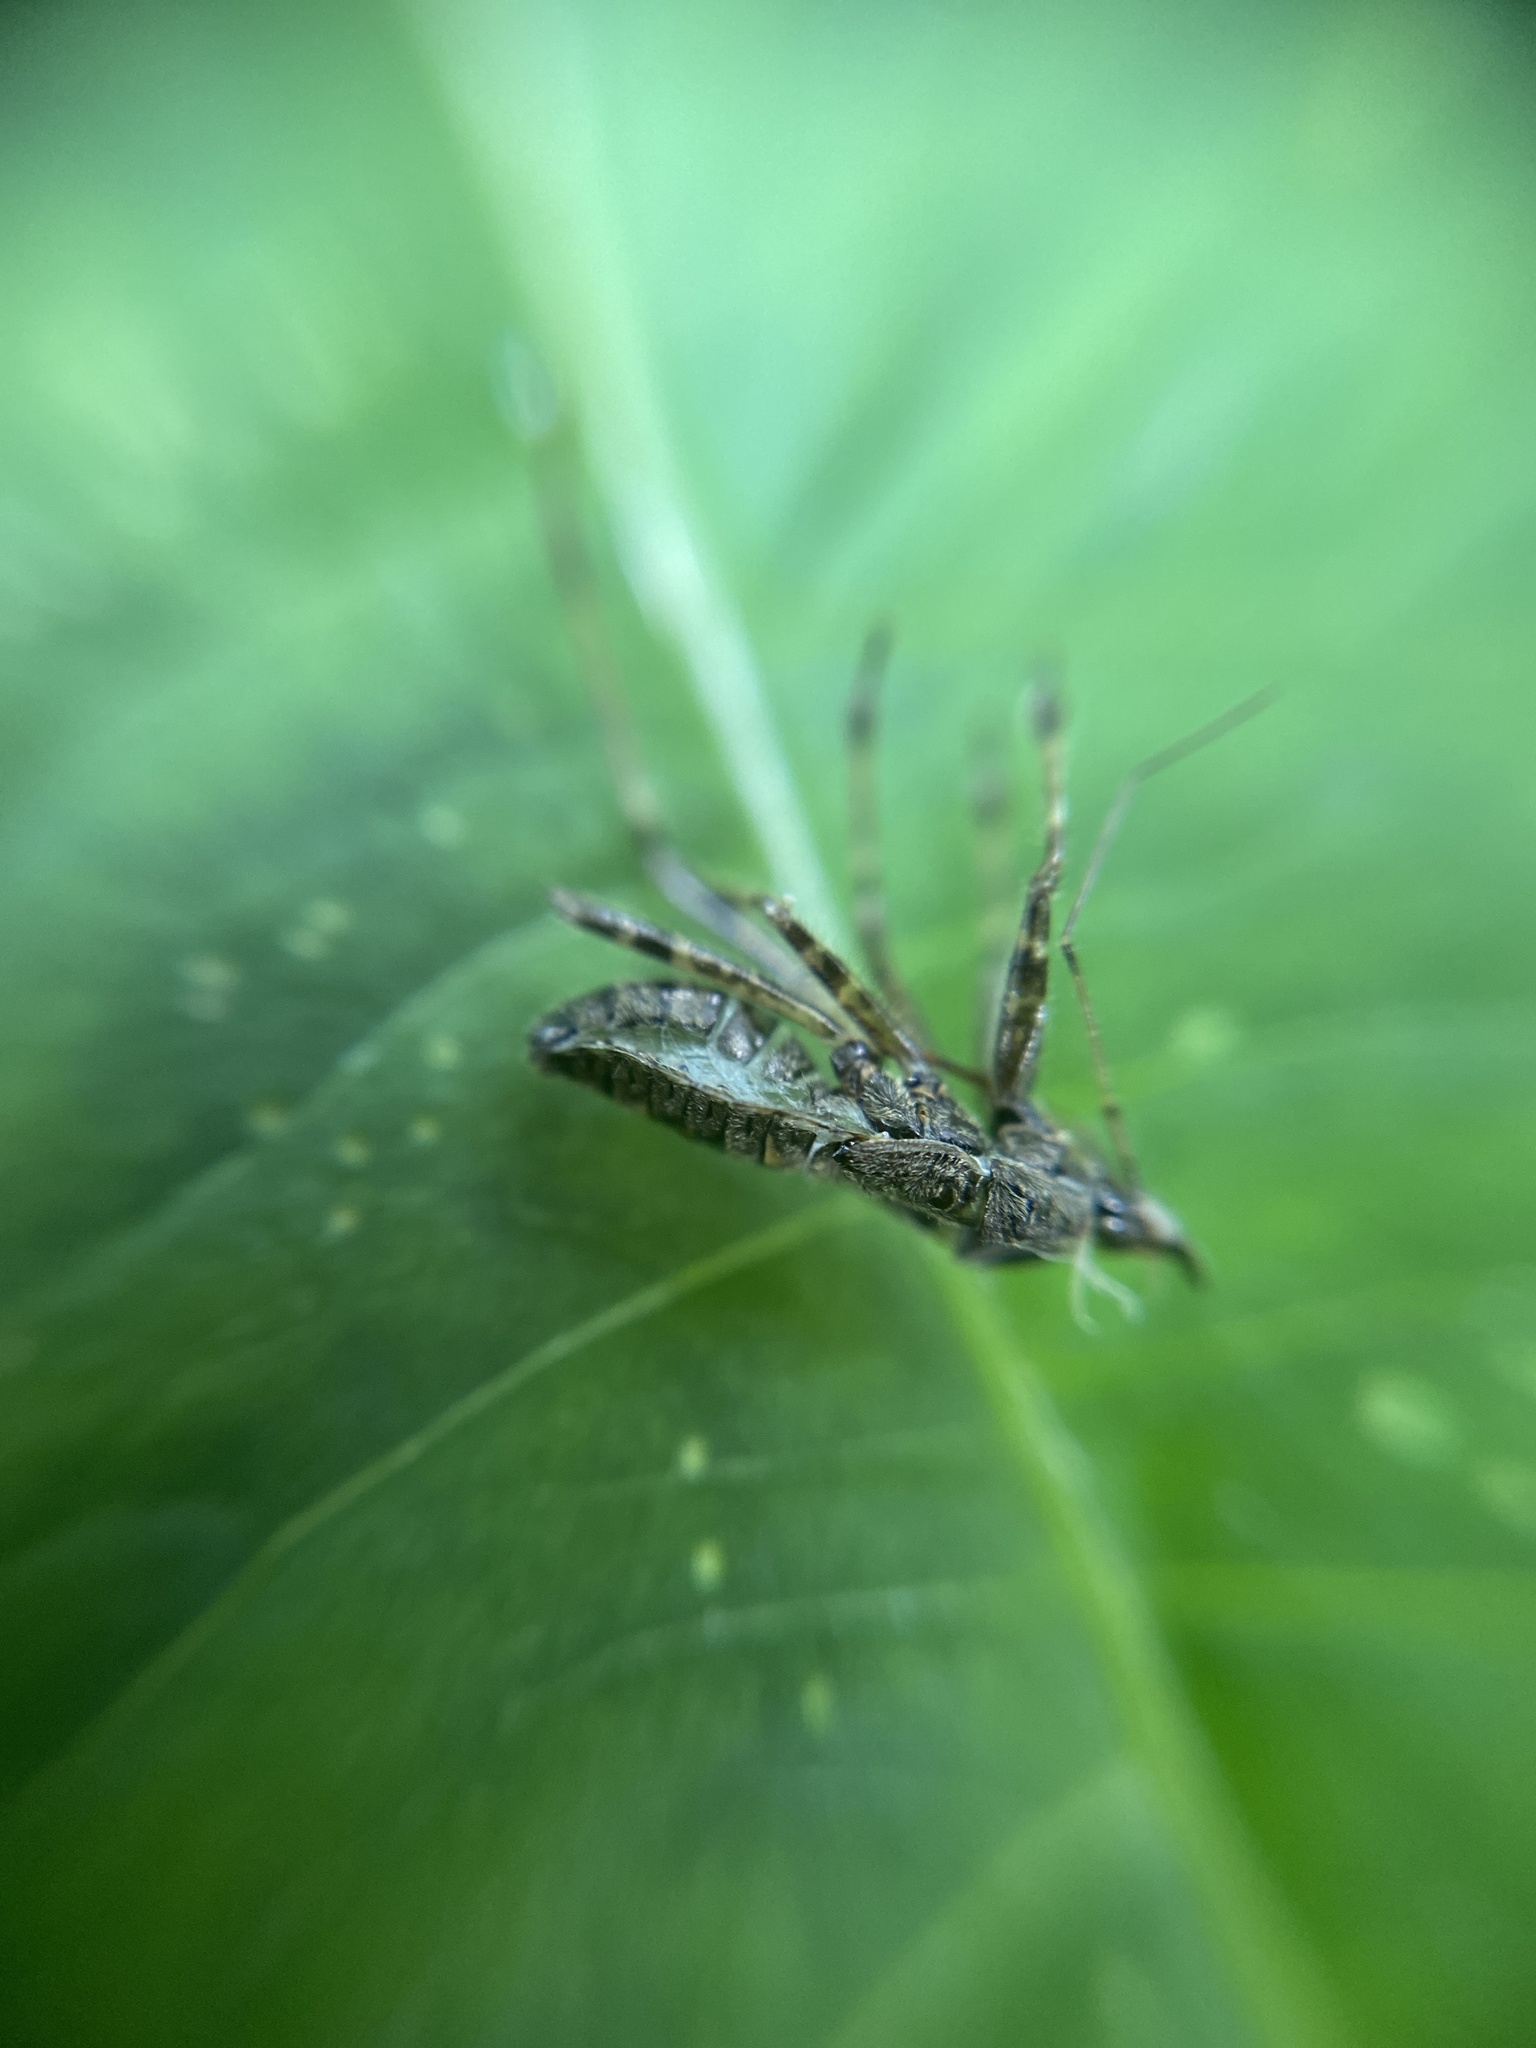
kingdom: Animalia
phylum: Arthropoda
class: Insecta
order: Hemiptera
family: Nabidae
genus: Himacerus
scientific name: Himacerus apterus
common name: Tree damsel bug
